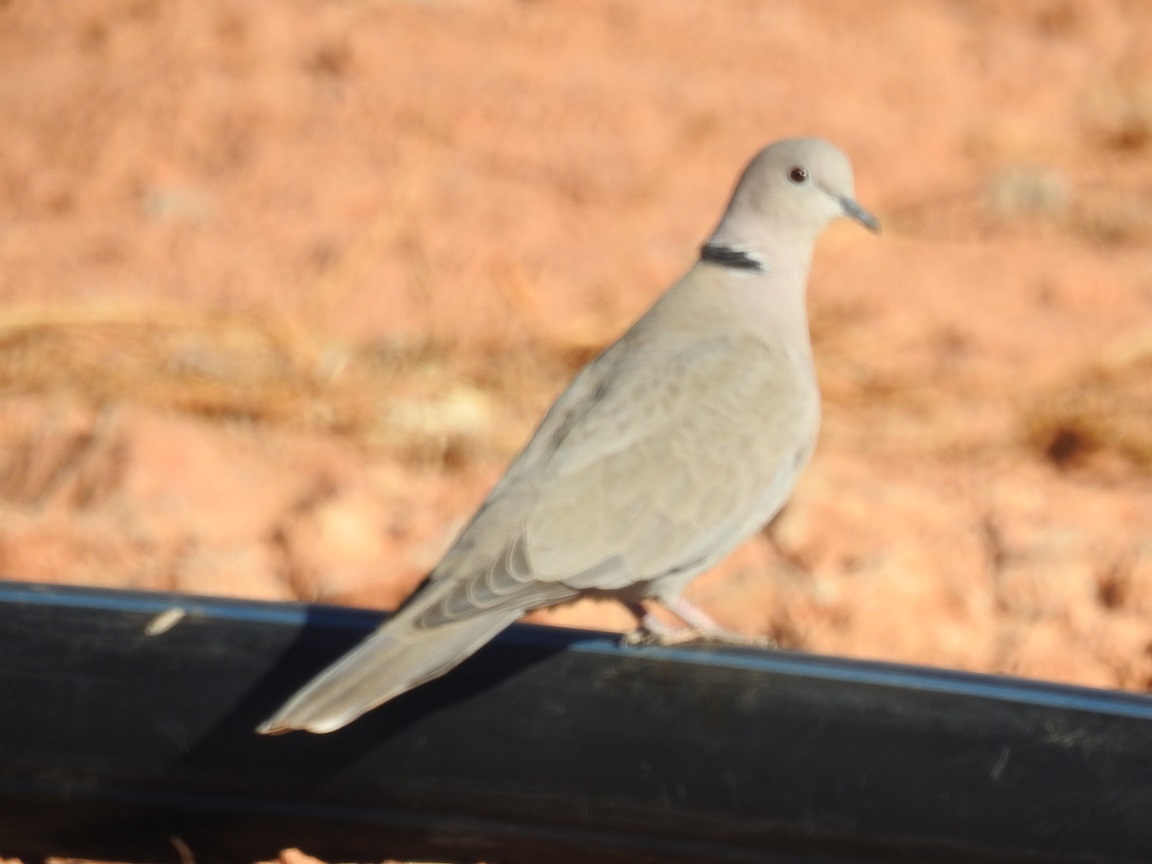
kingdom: Animalia
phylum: Chordata
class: Aves
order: Columbiformes
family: Columbidae
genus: Streptopelia
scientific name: Streptopelia decaocto
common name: Eurasian collared dove
